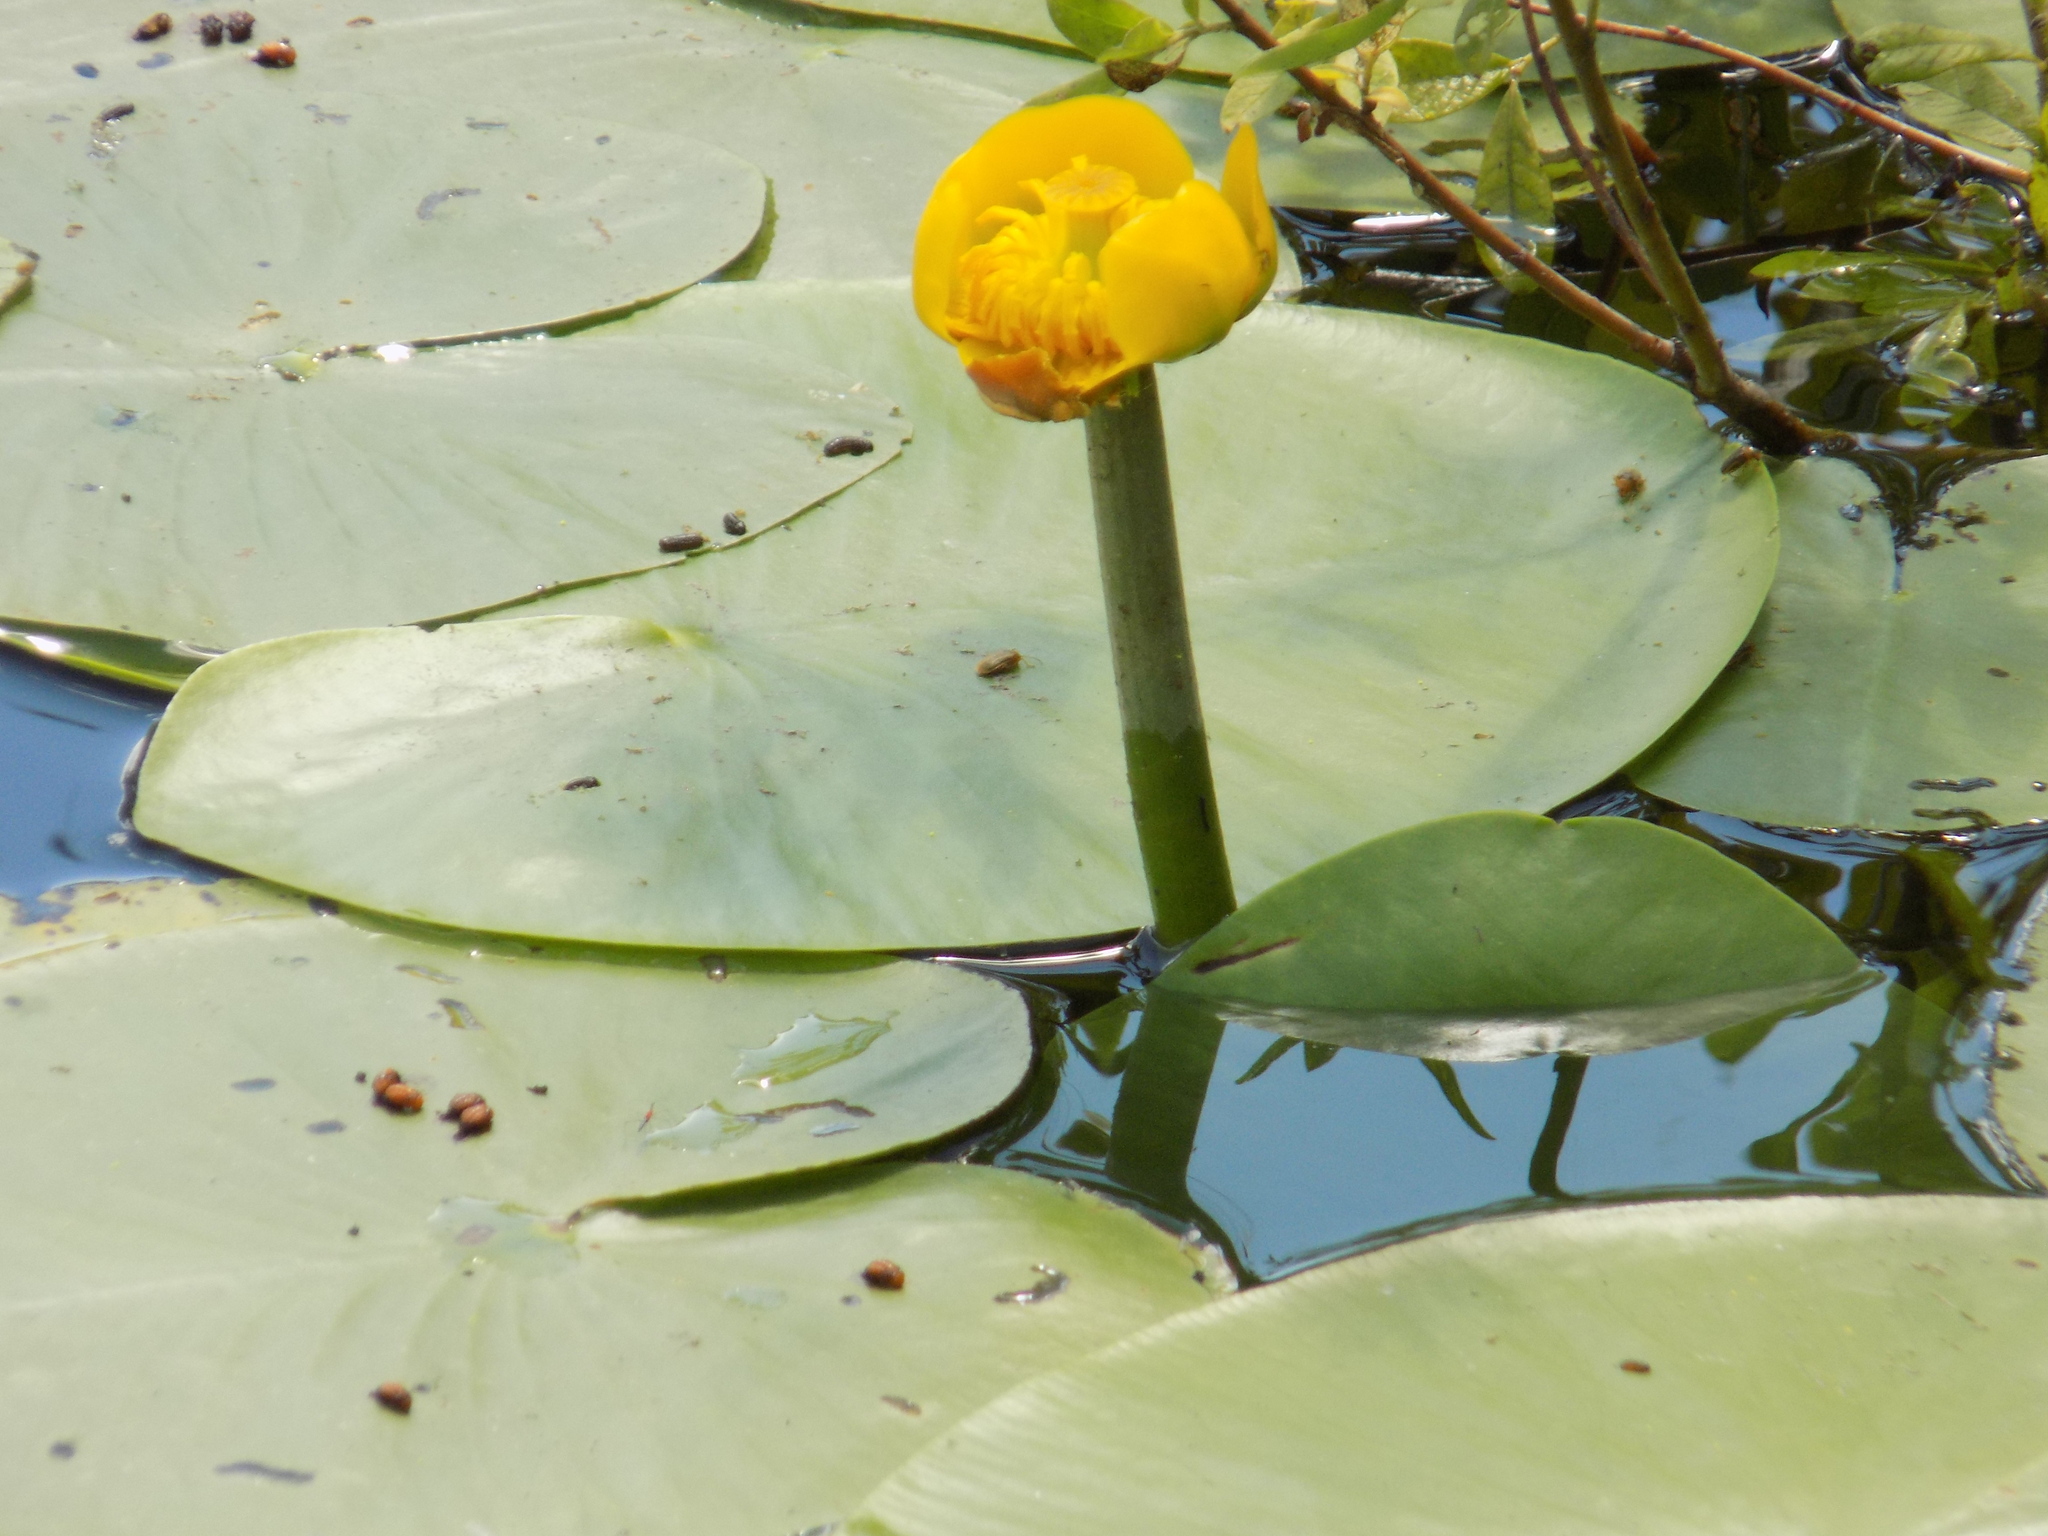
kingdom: Plantae
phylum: Tracheophyta
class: Magnoliopsida
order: Nymphaeales
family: Nymphaeaceae
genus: Nuphar
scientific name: Nuphar lutea
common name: Yellow water-lily
